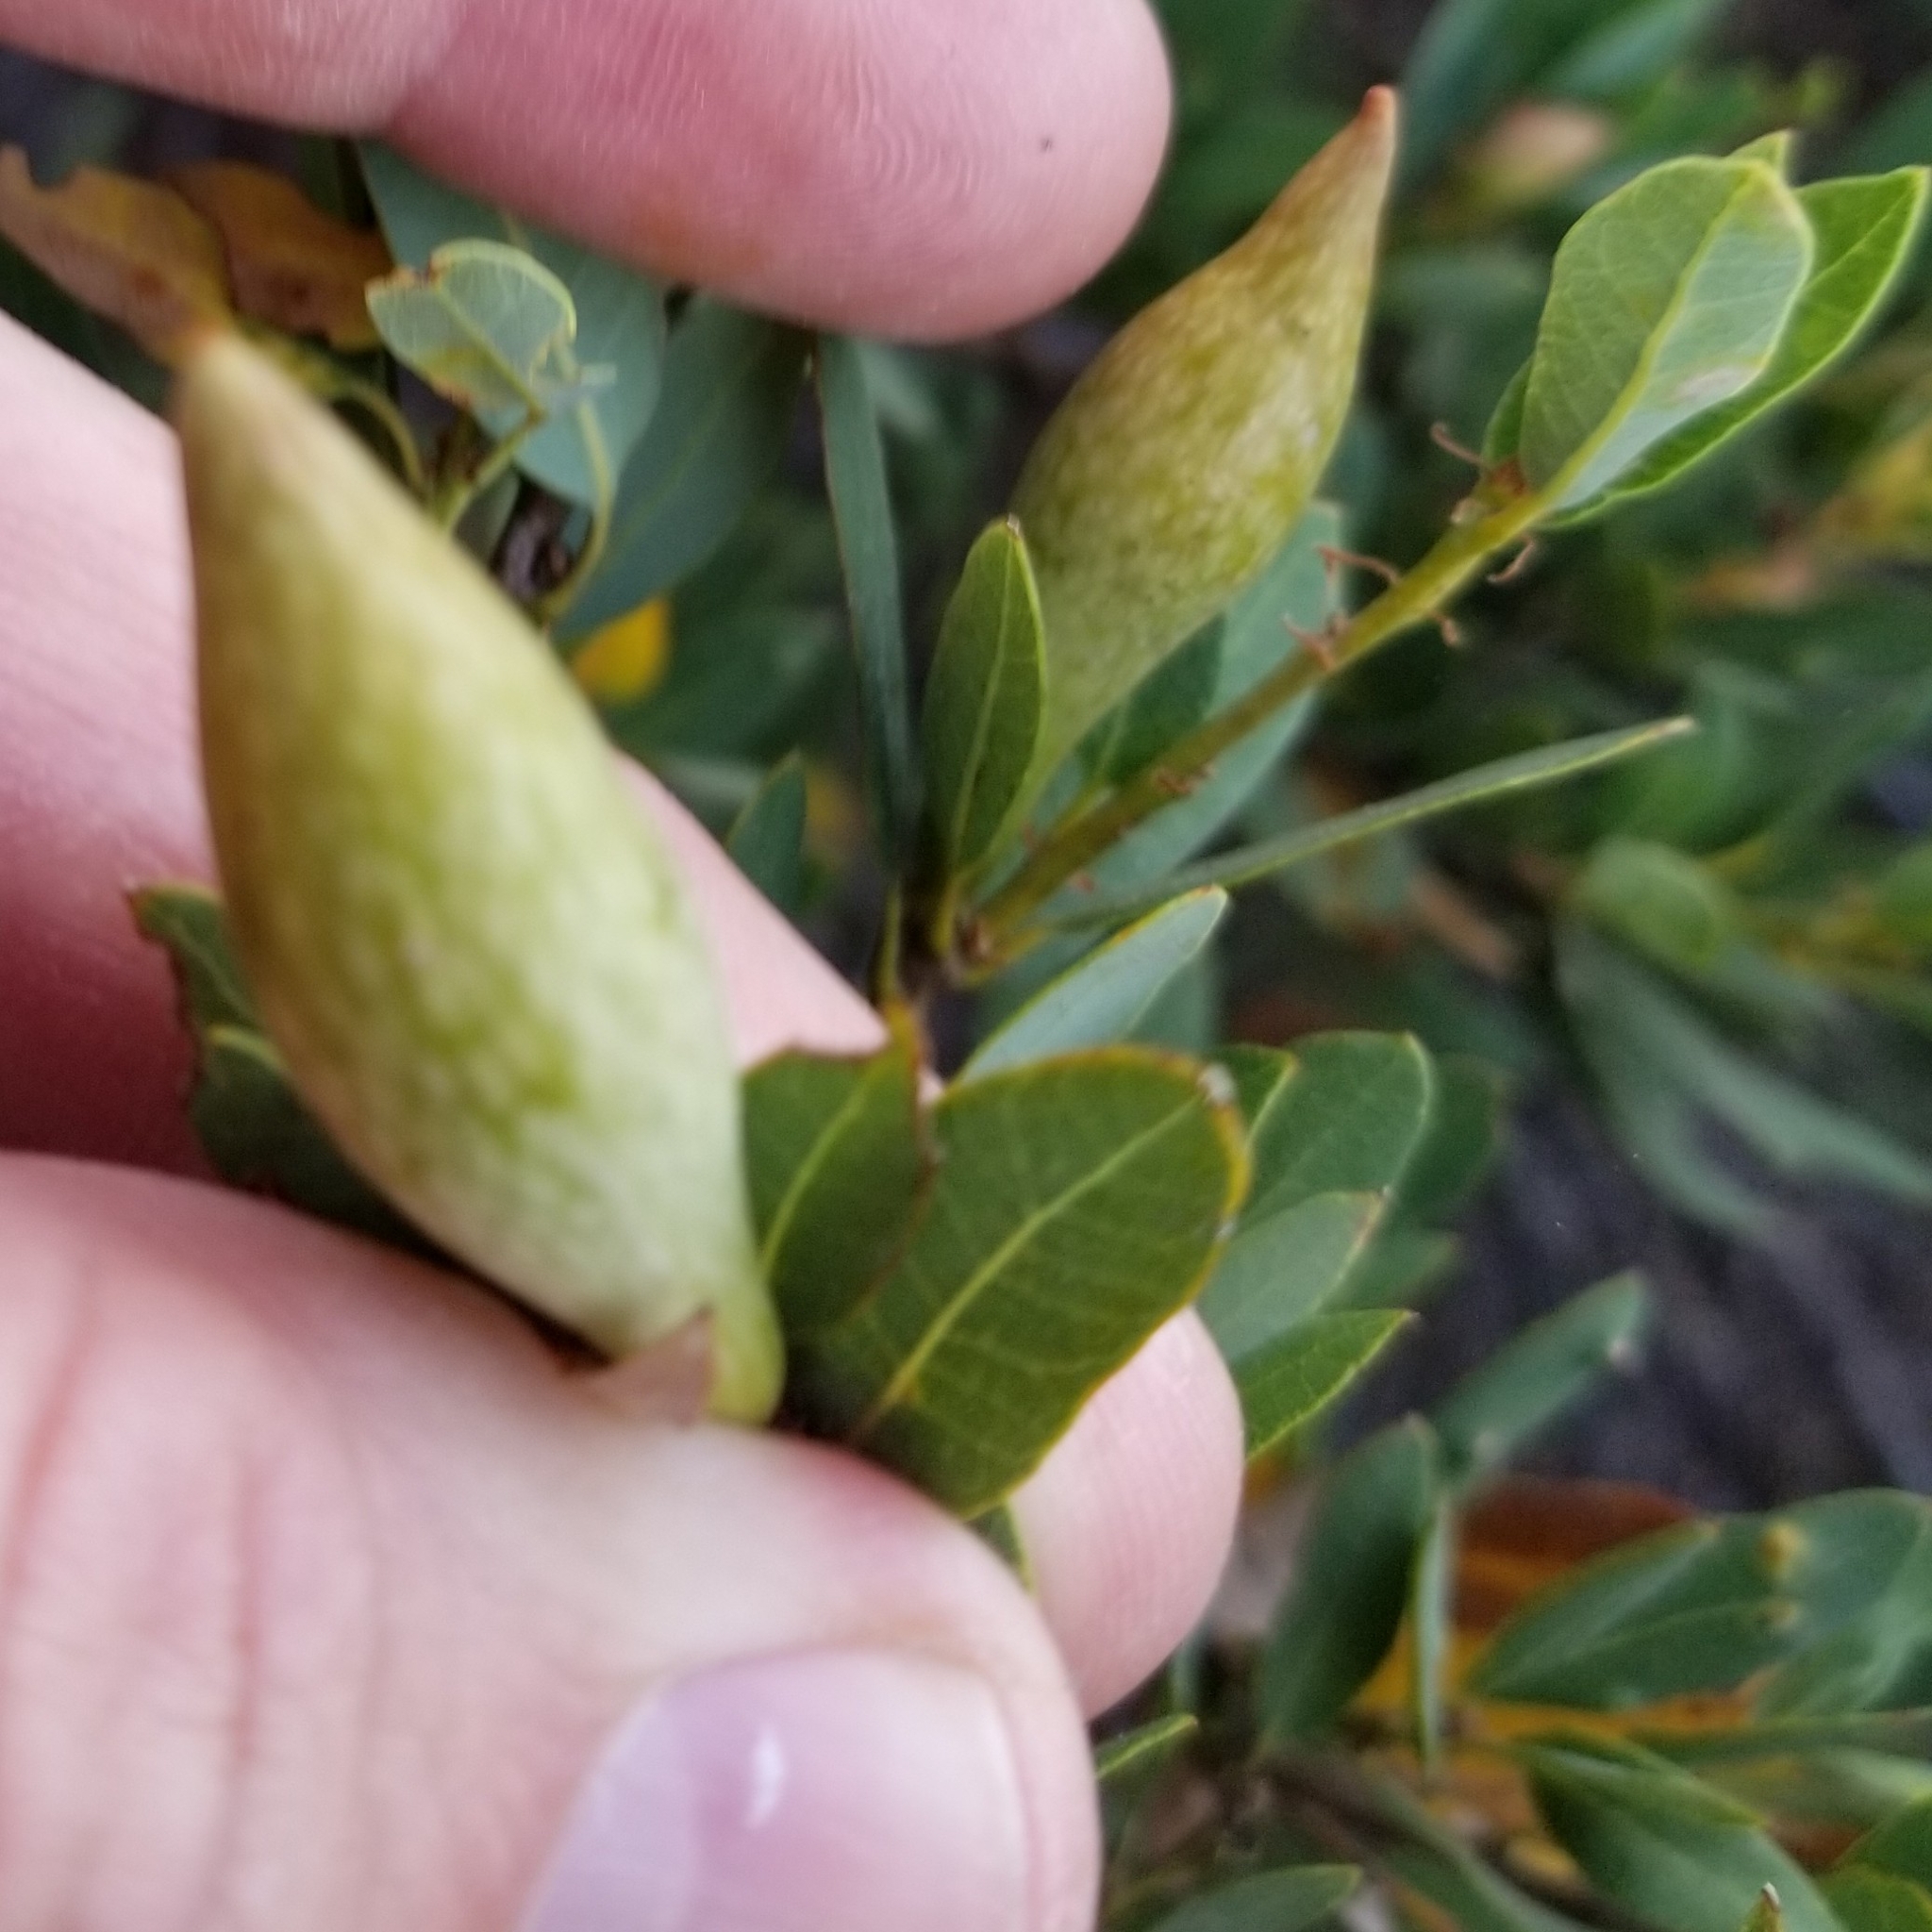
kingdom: Animalia
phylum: Arthropoda
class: Insecta
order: Hymenoptera
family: Cynipidae
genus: Heteroecus
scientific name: Heteroecus pacificus
